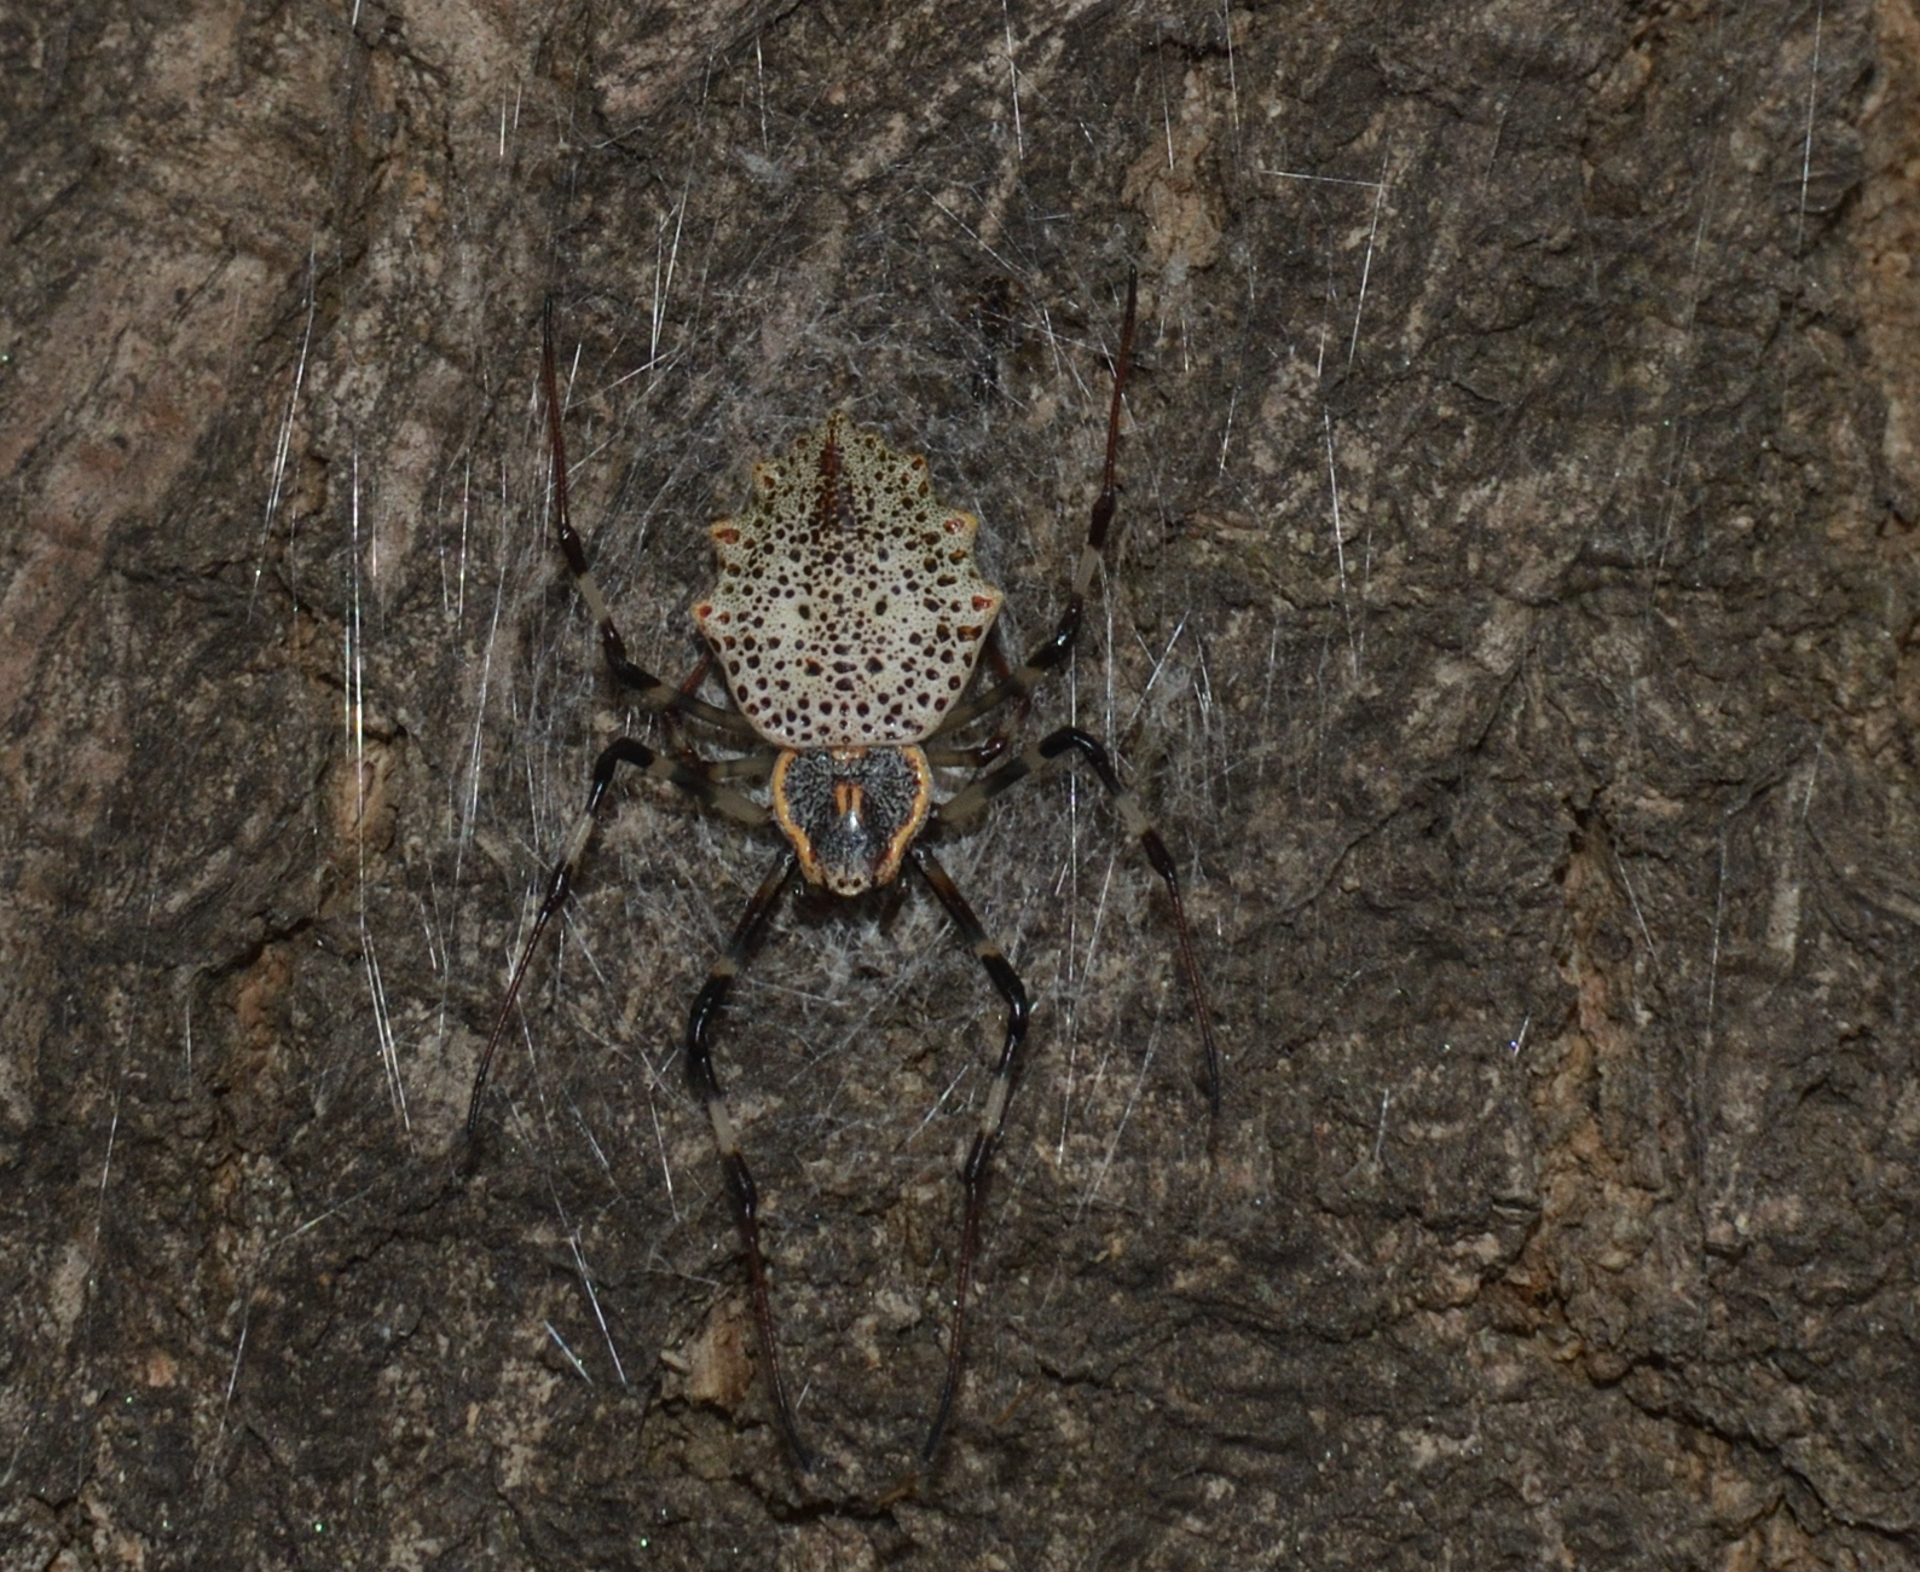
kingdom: Animalia
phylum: Arthropoda
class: Arachnida
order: Araneae
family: Araneidae
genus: Herennia
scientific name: Herennia multipuncta
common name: Spotted coin spider
